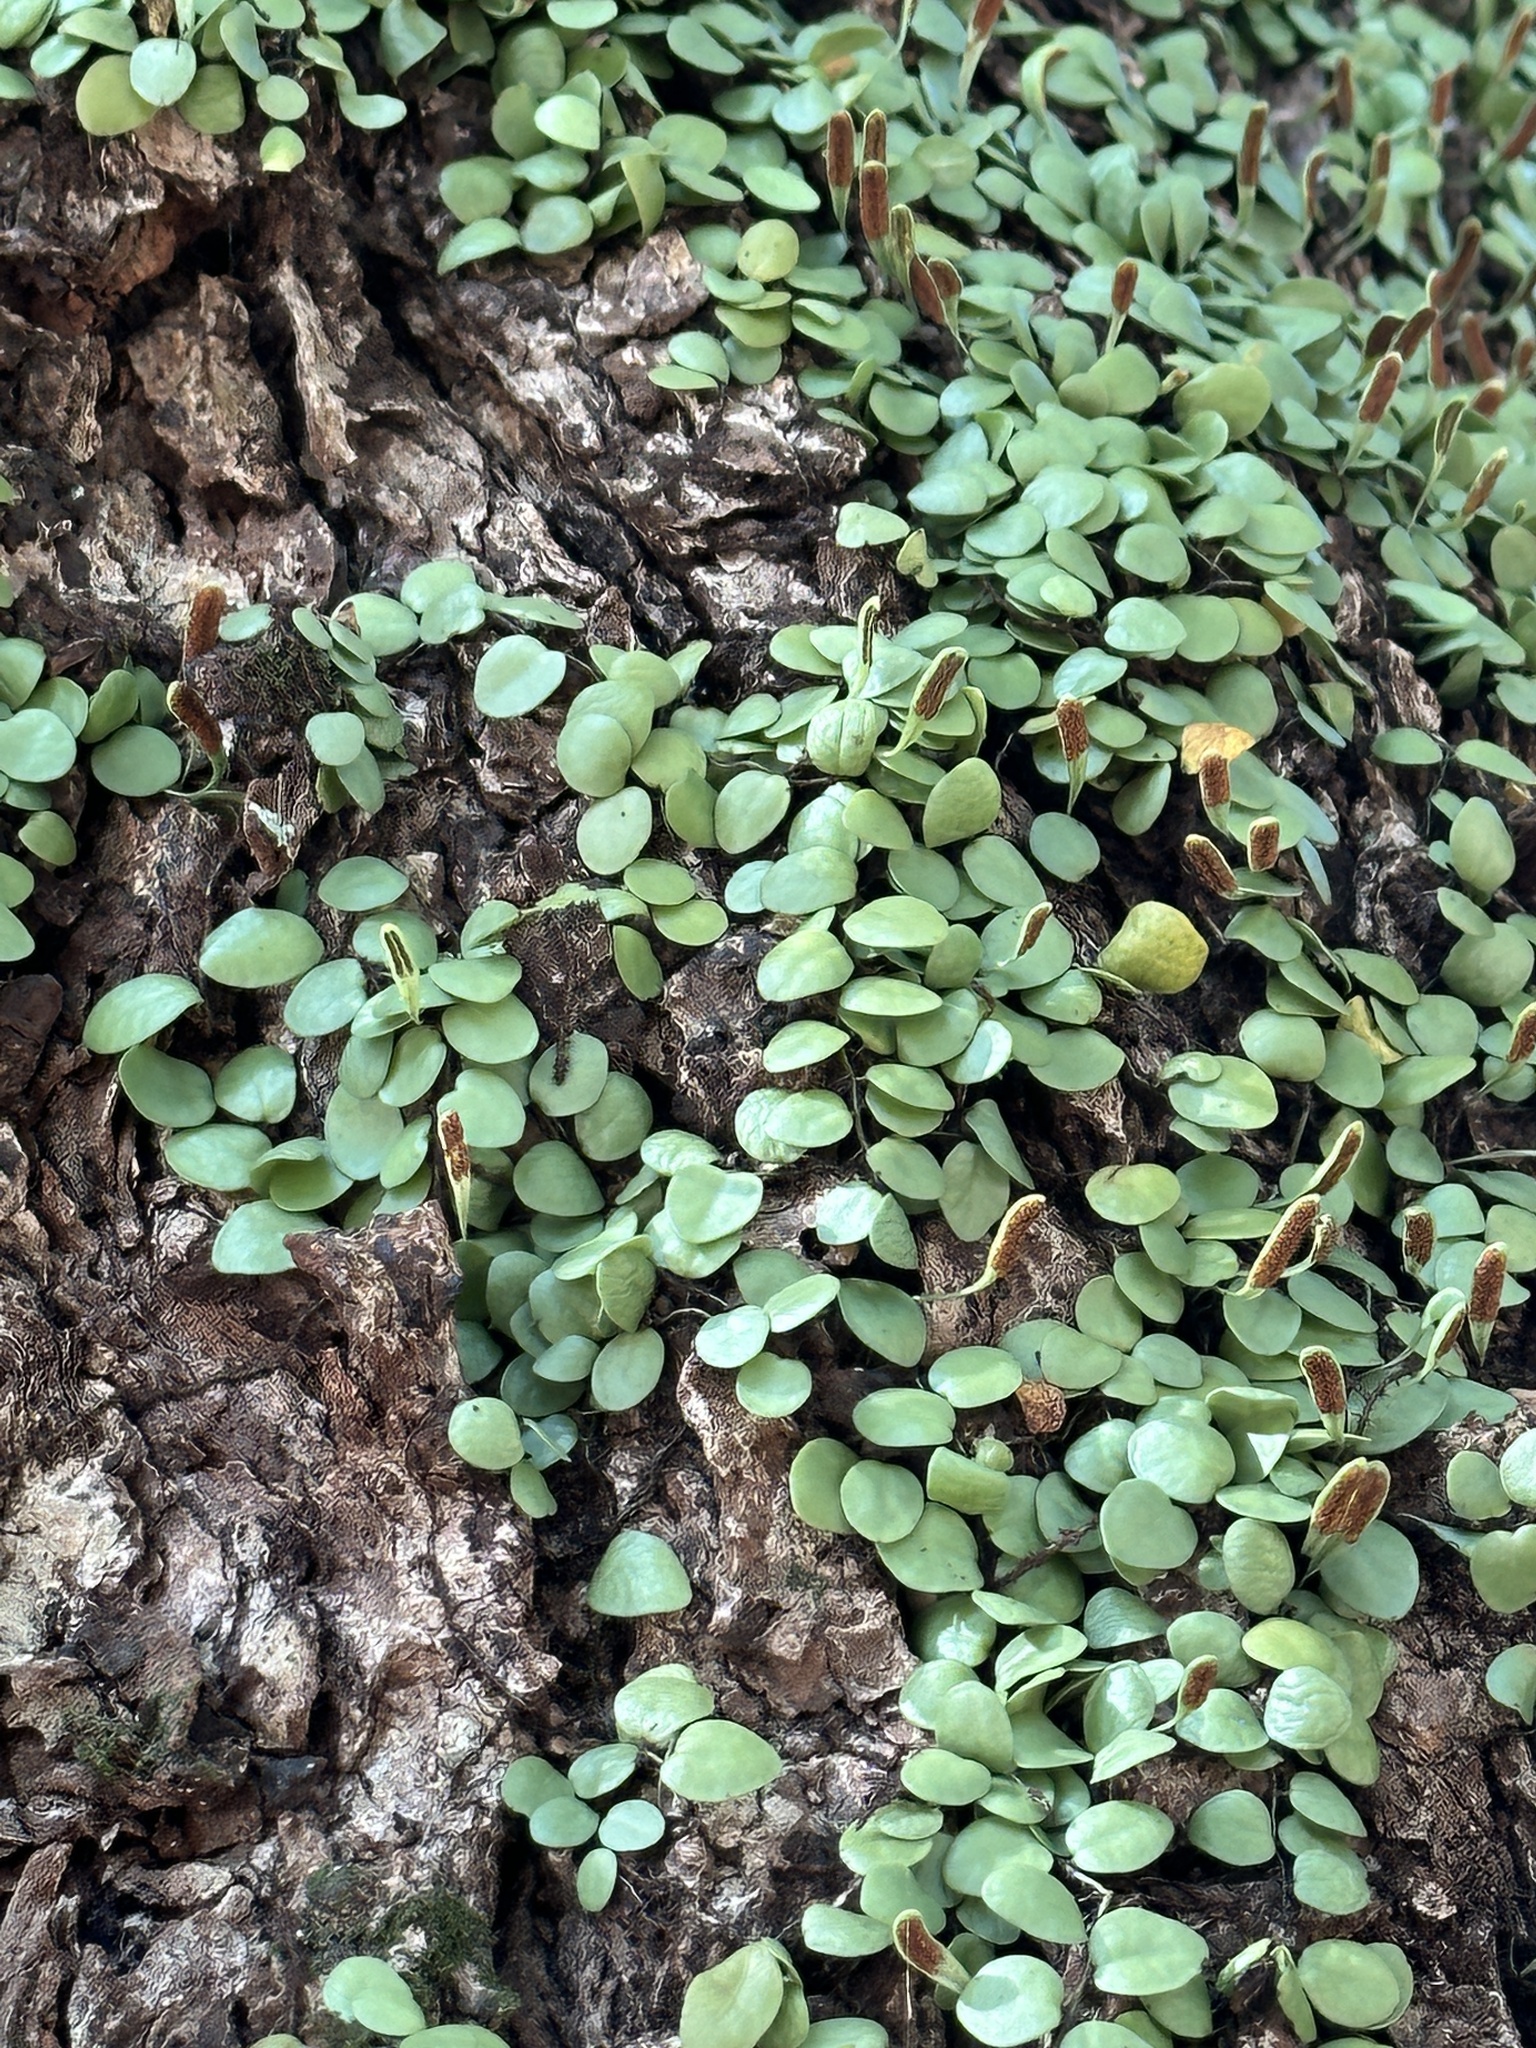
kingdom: Plantae
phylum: Tracheophyta
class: Polypodiopsida
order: Polypodiales
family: Polypodiaceae
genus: Lepisorus
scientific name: Lepisorus microphyllus
